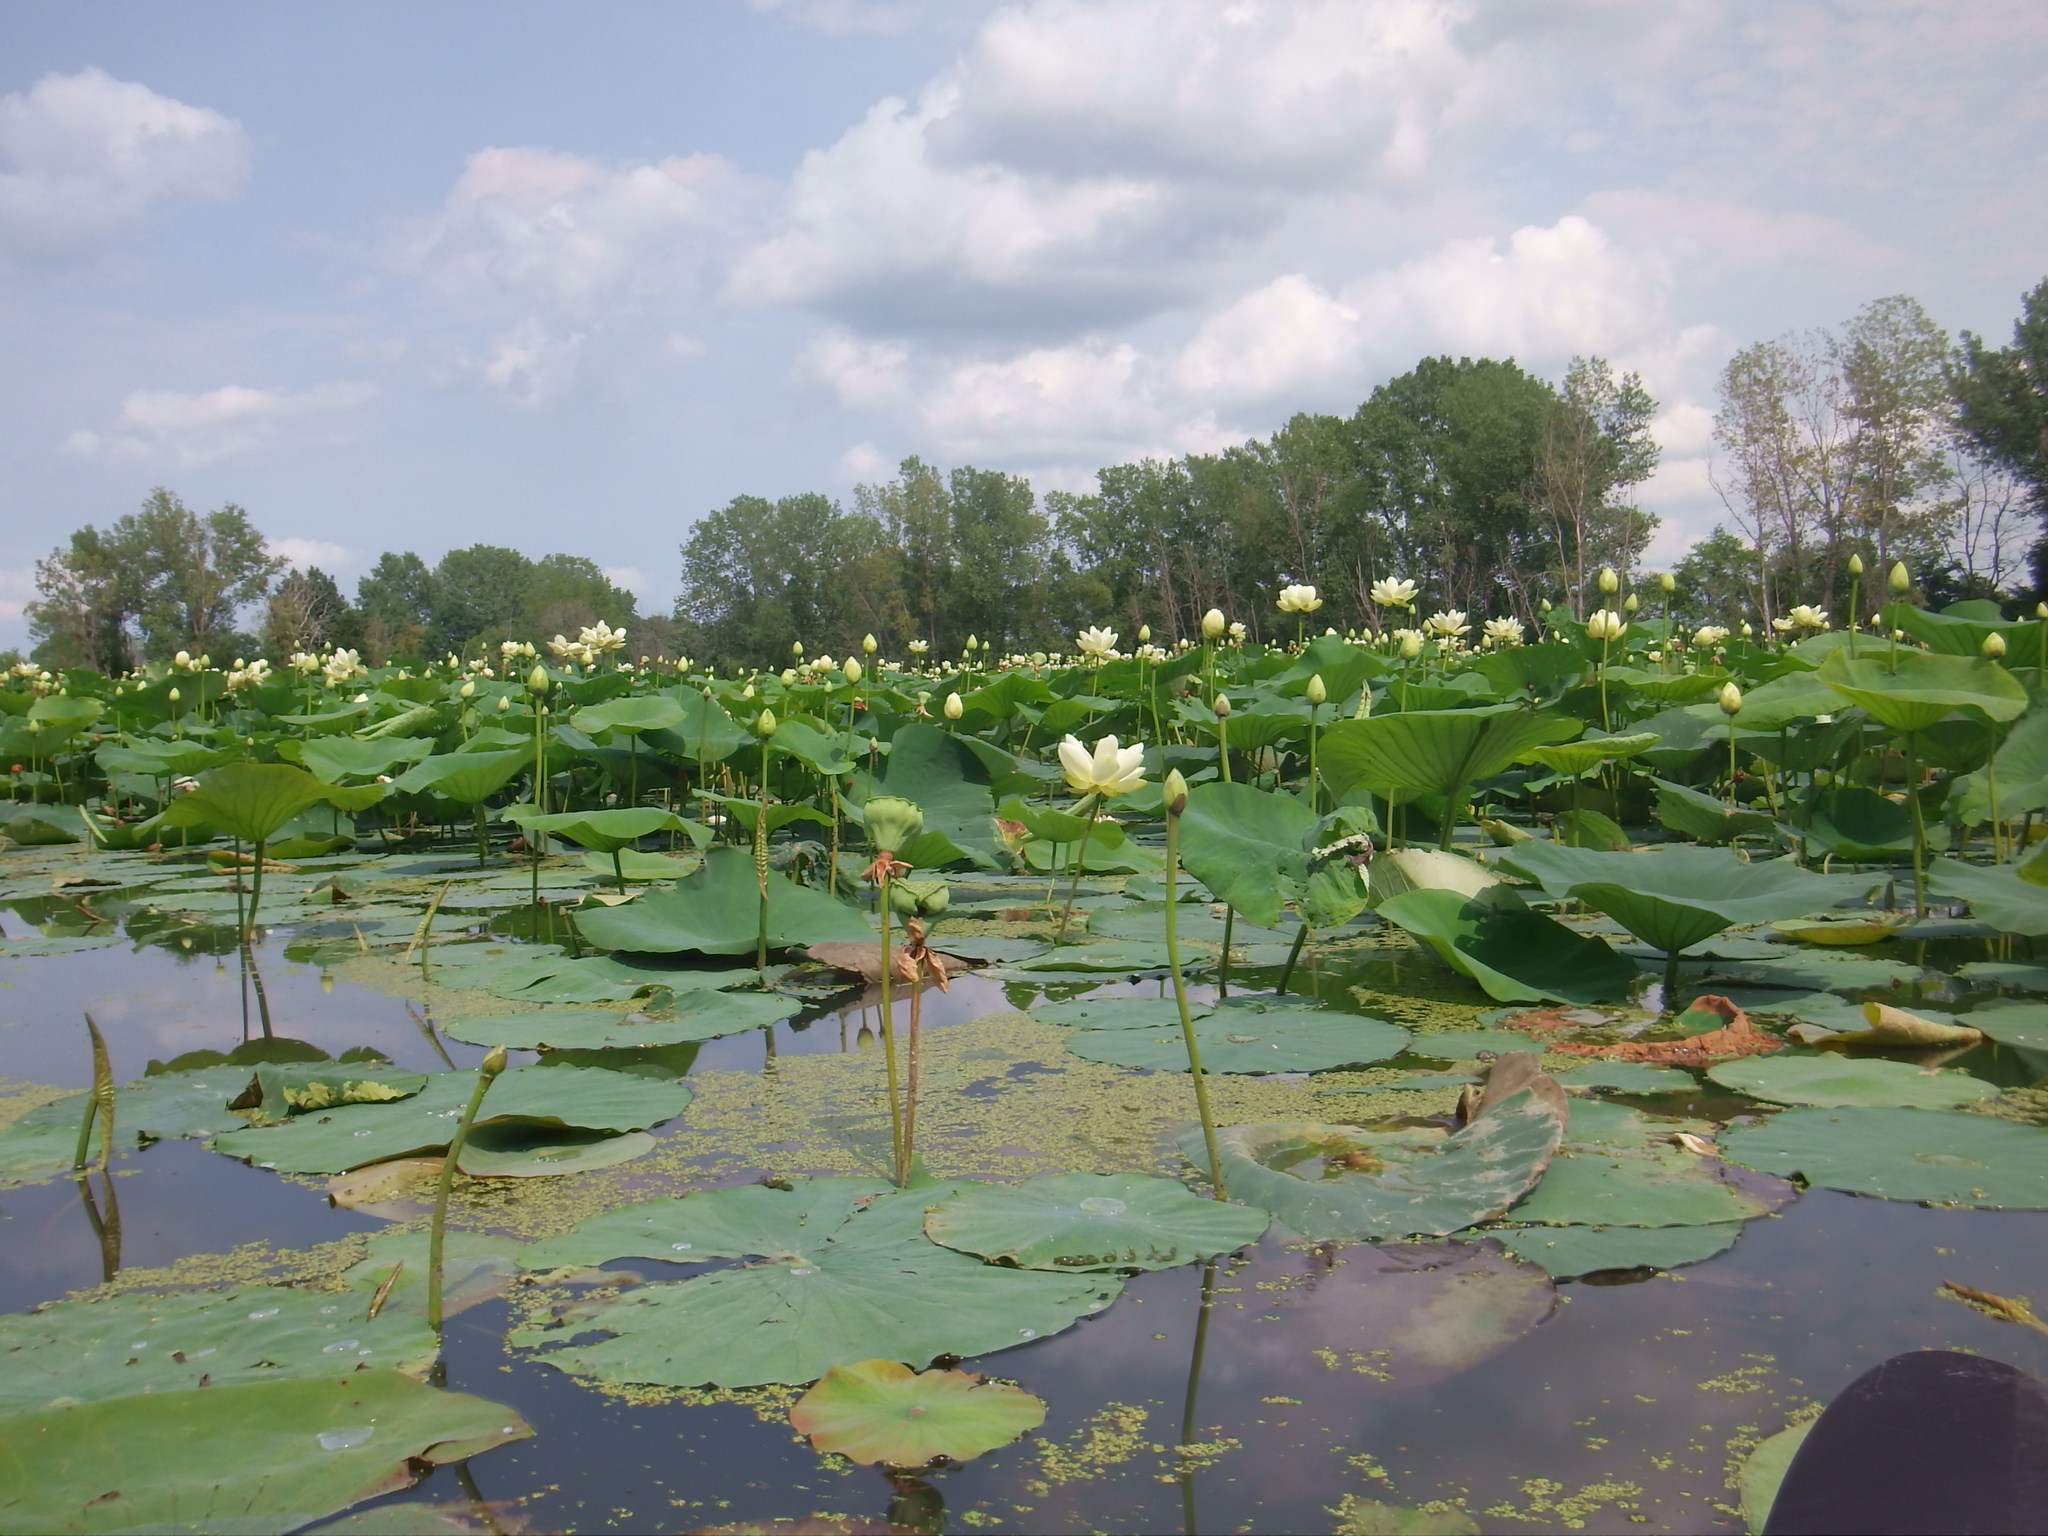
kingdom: Plantae
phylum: Tracheophyta
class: Magnoliopsida
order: Proteales
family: Nelumbonaceae
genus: Nelumbo
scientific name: Nelumbo lutea
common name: American lotus
